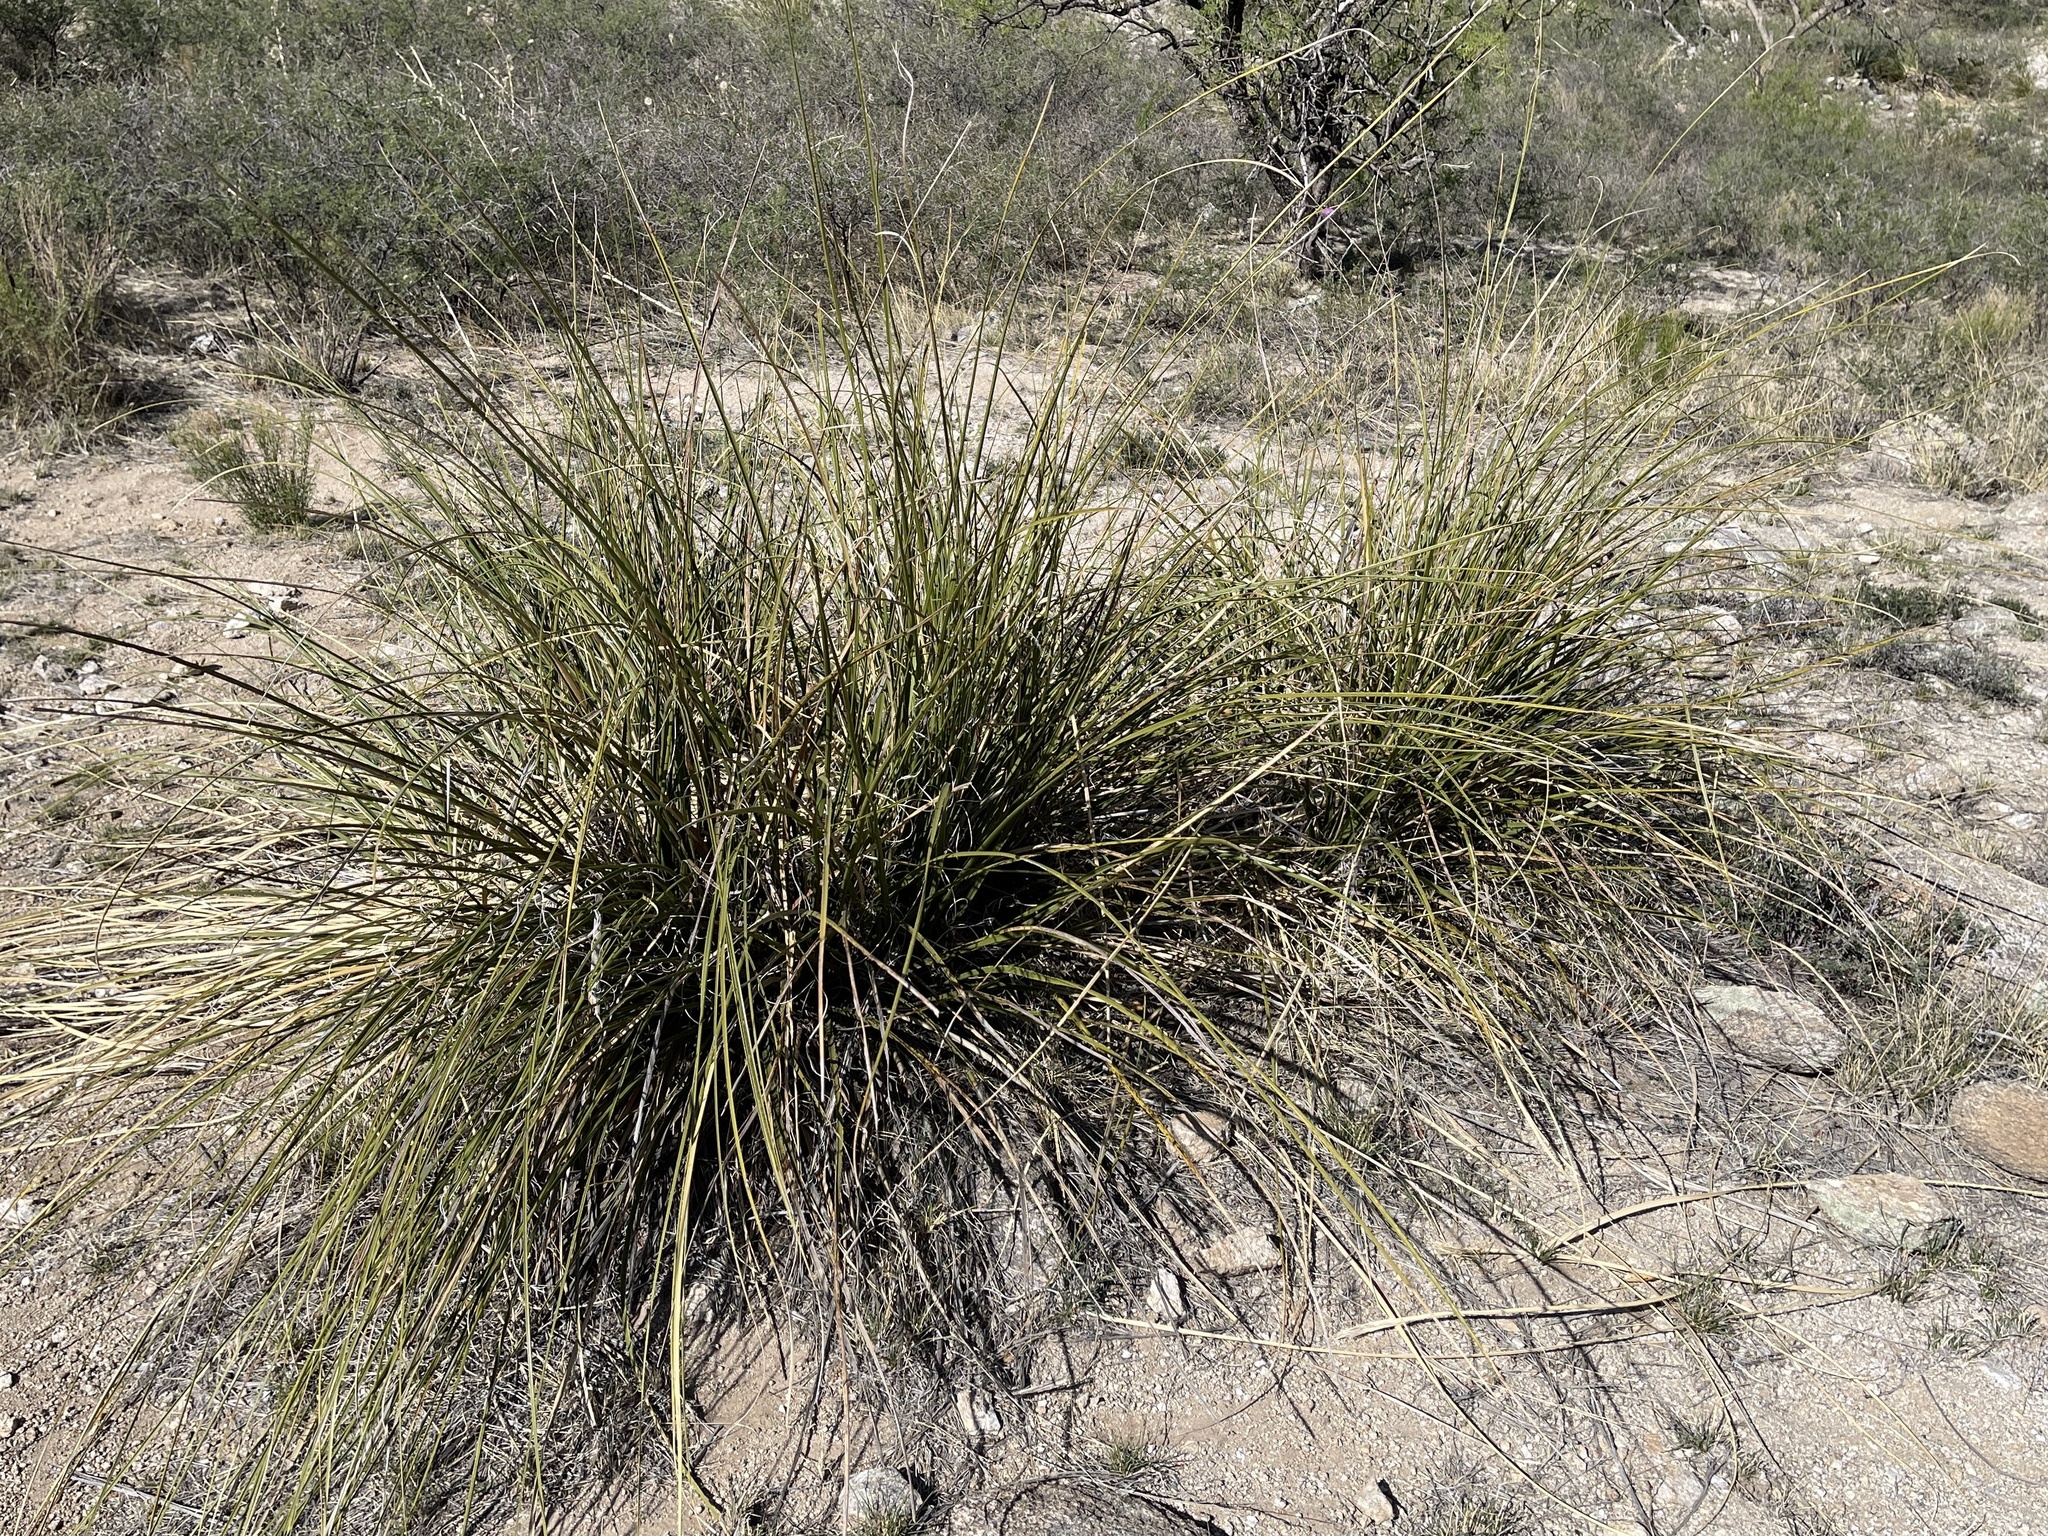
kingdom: Plantae
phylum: Tracheophyta
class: Liliopsida
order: Asparagales
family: Asparagaceae
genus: Nolina
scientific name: Nolina microcarpa
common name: Bear-grass
